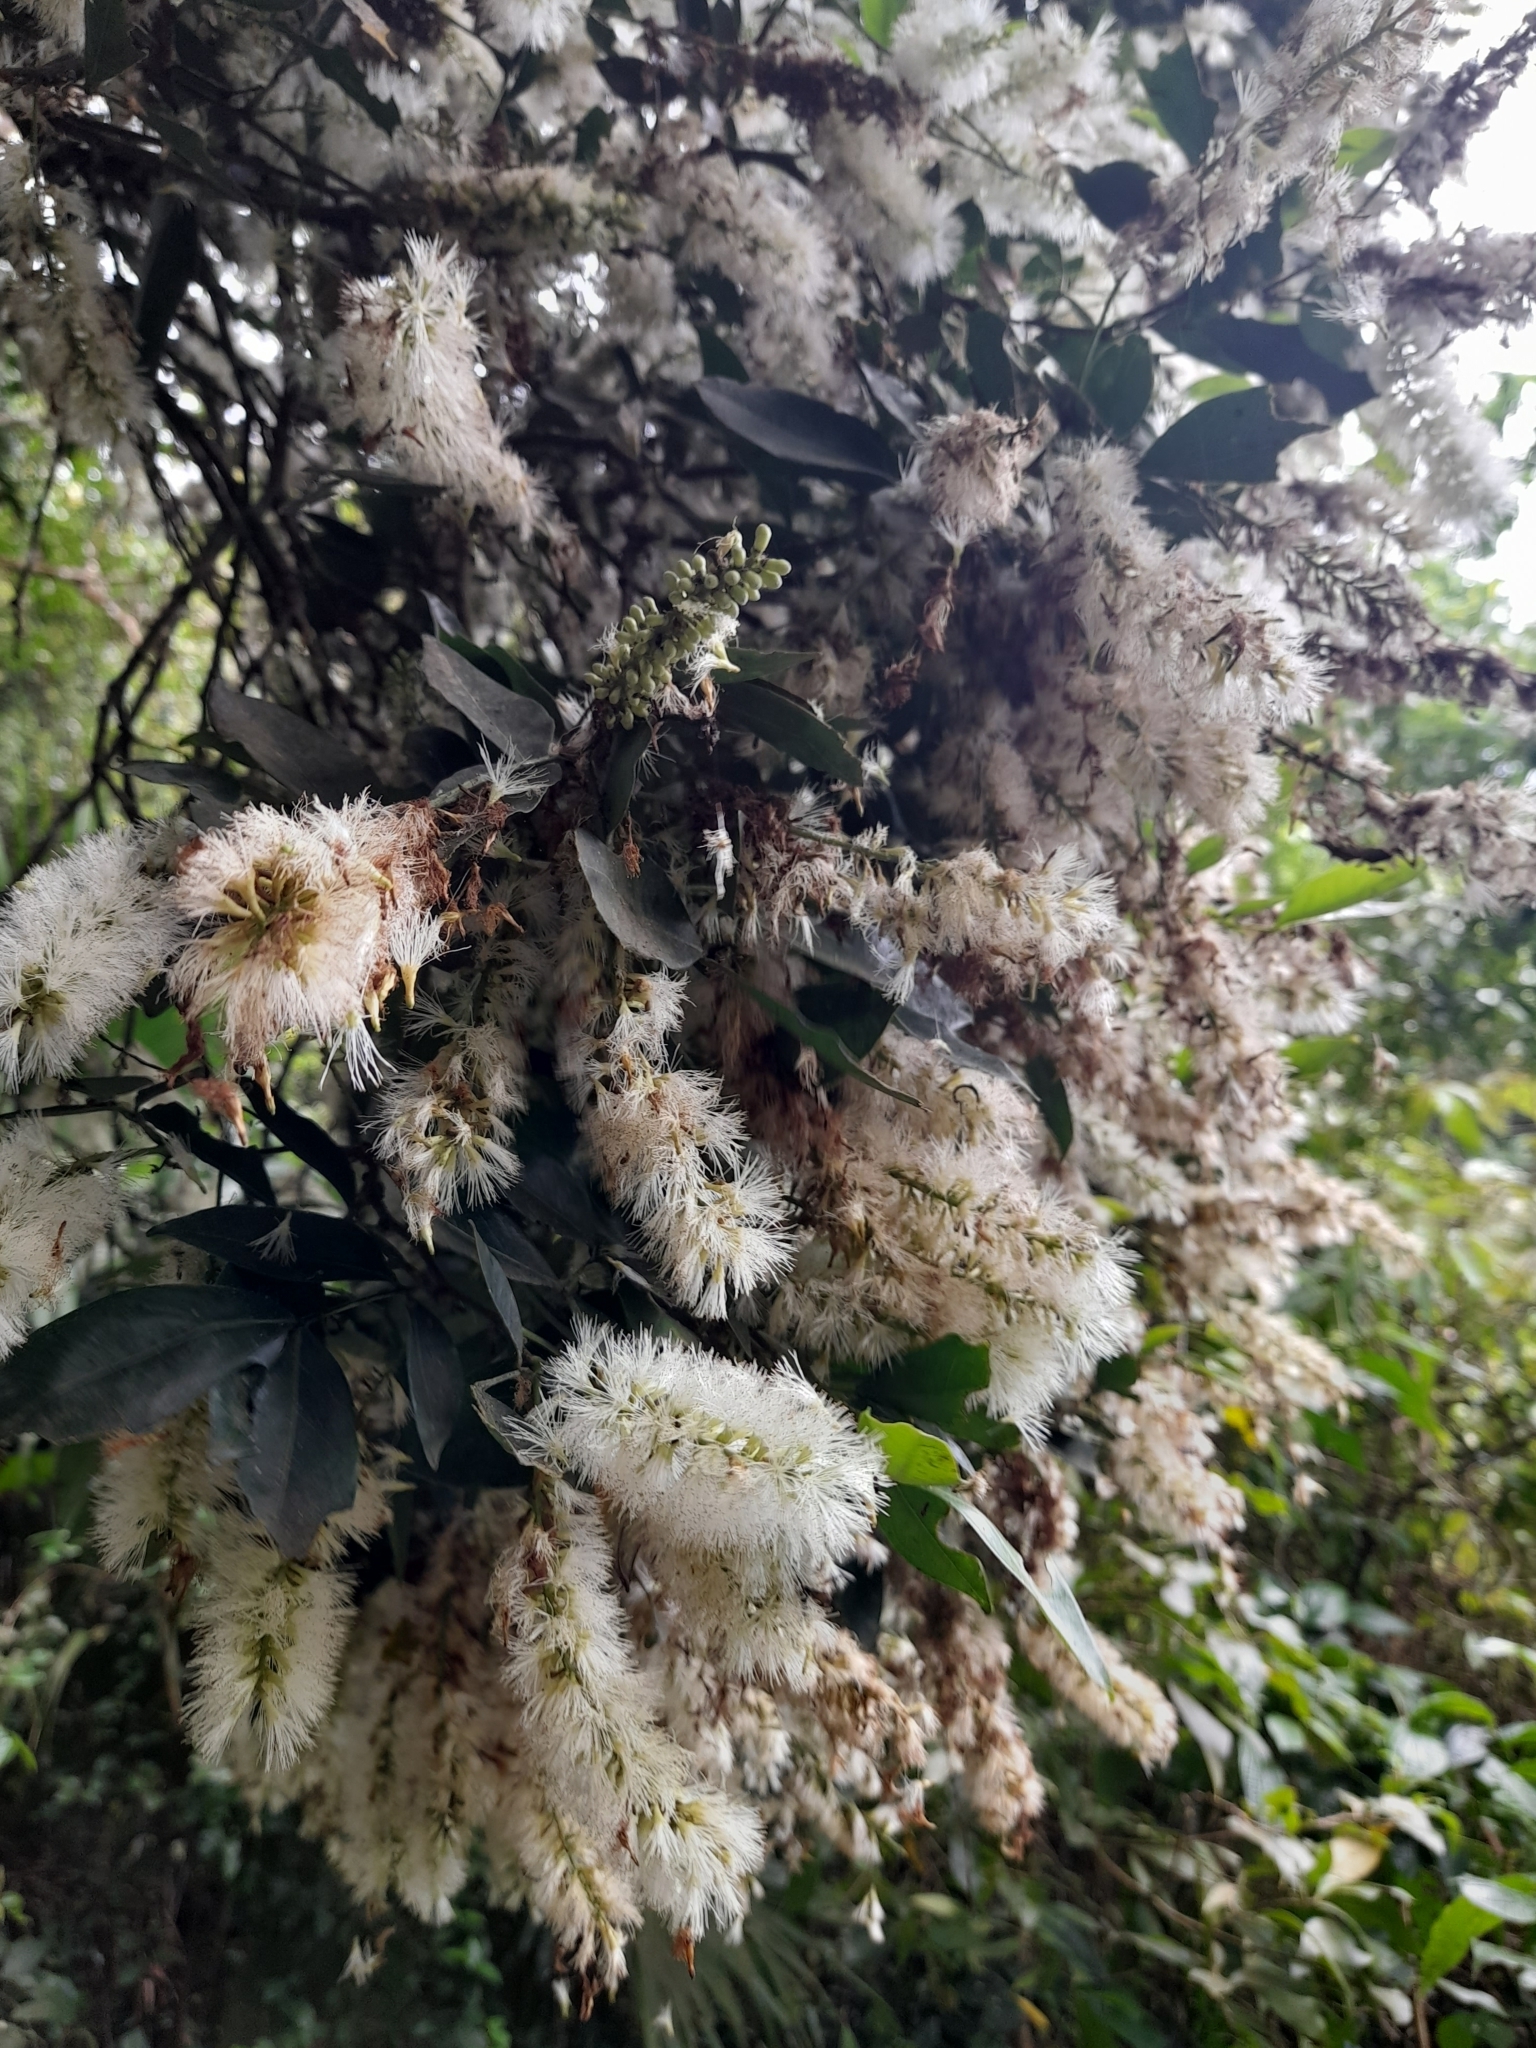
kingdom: Plantae
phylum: Tracheophyta
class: Magnoliopsida
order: Fabales
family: Fabaceae
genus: Inga
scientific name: Inga laurina
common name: Red wood
